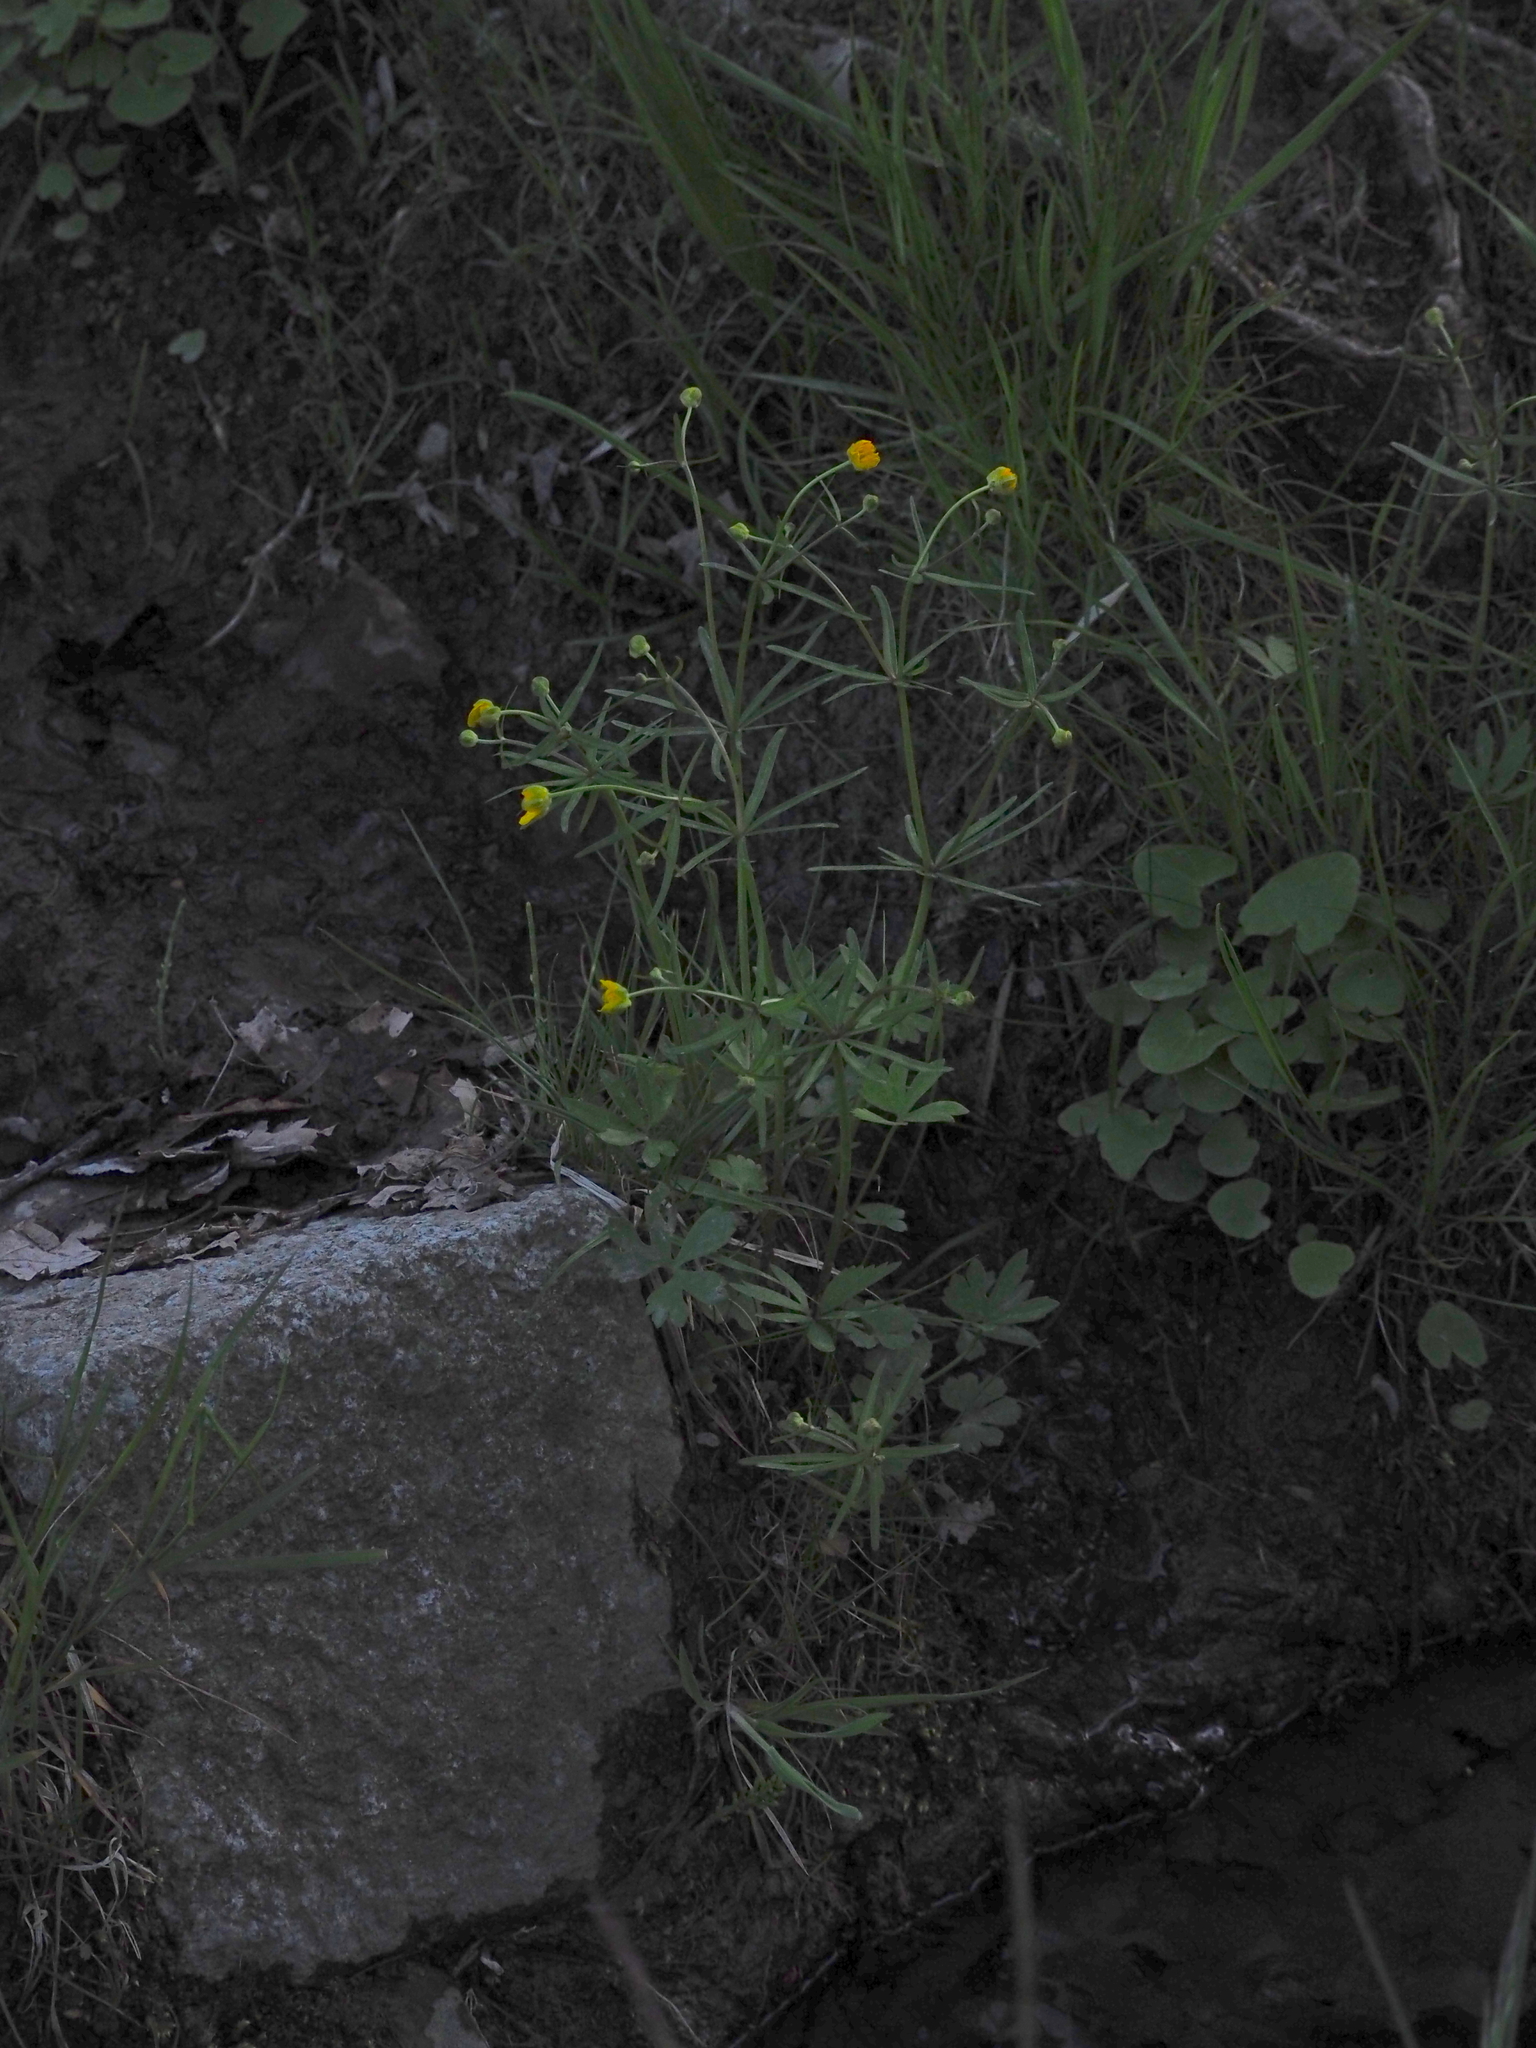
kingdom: Plantae
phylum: Tracheophyta
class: Magnoliopsida
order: Ranunculales
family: Ranunculaceae
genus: Ranunculus
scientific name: Ranunculus auricomus
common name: Goldilocks buttercup
